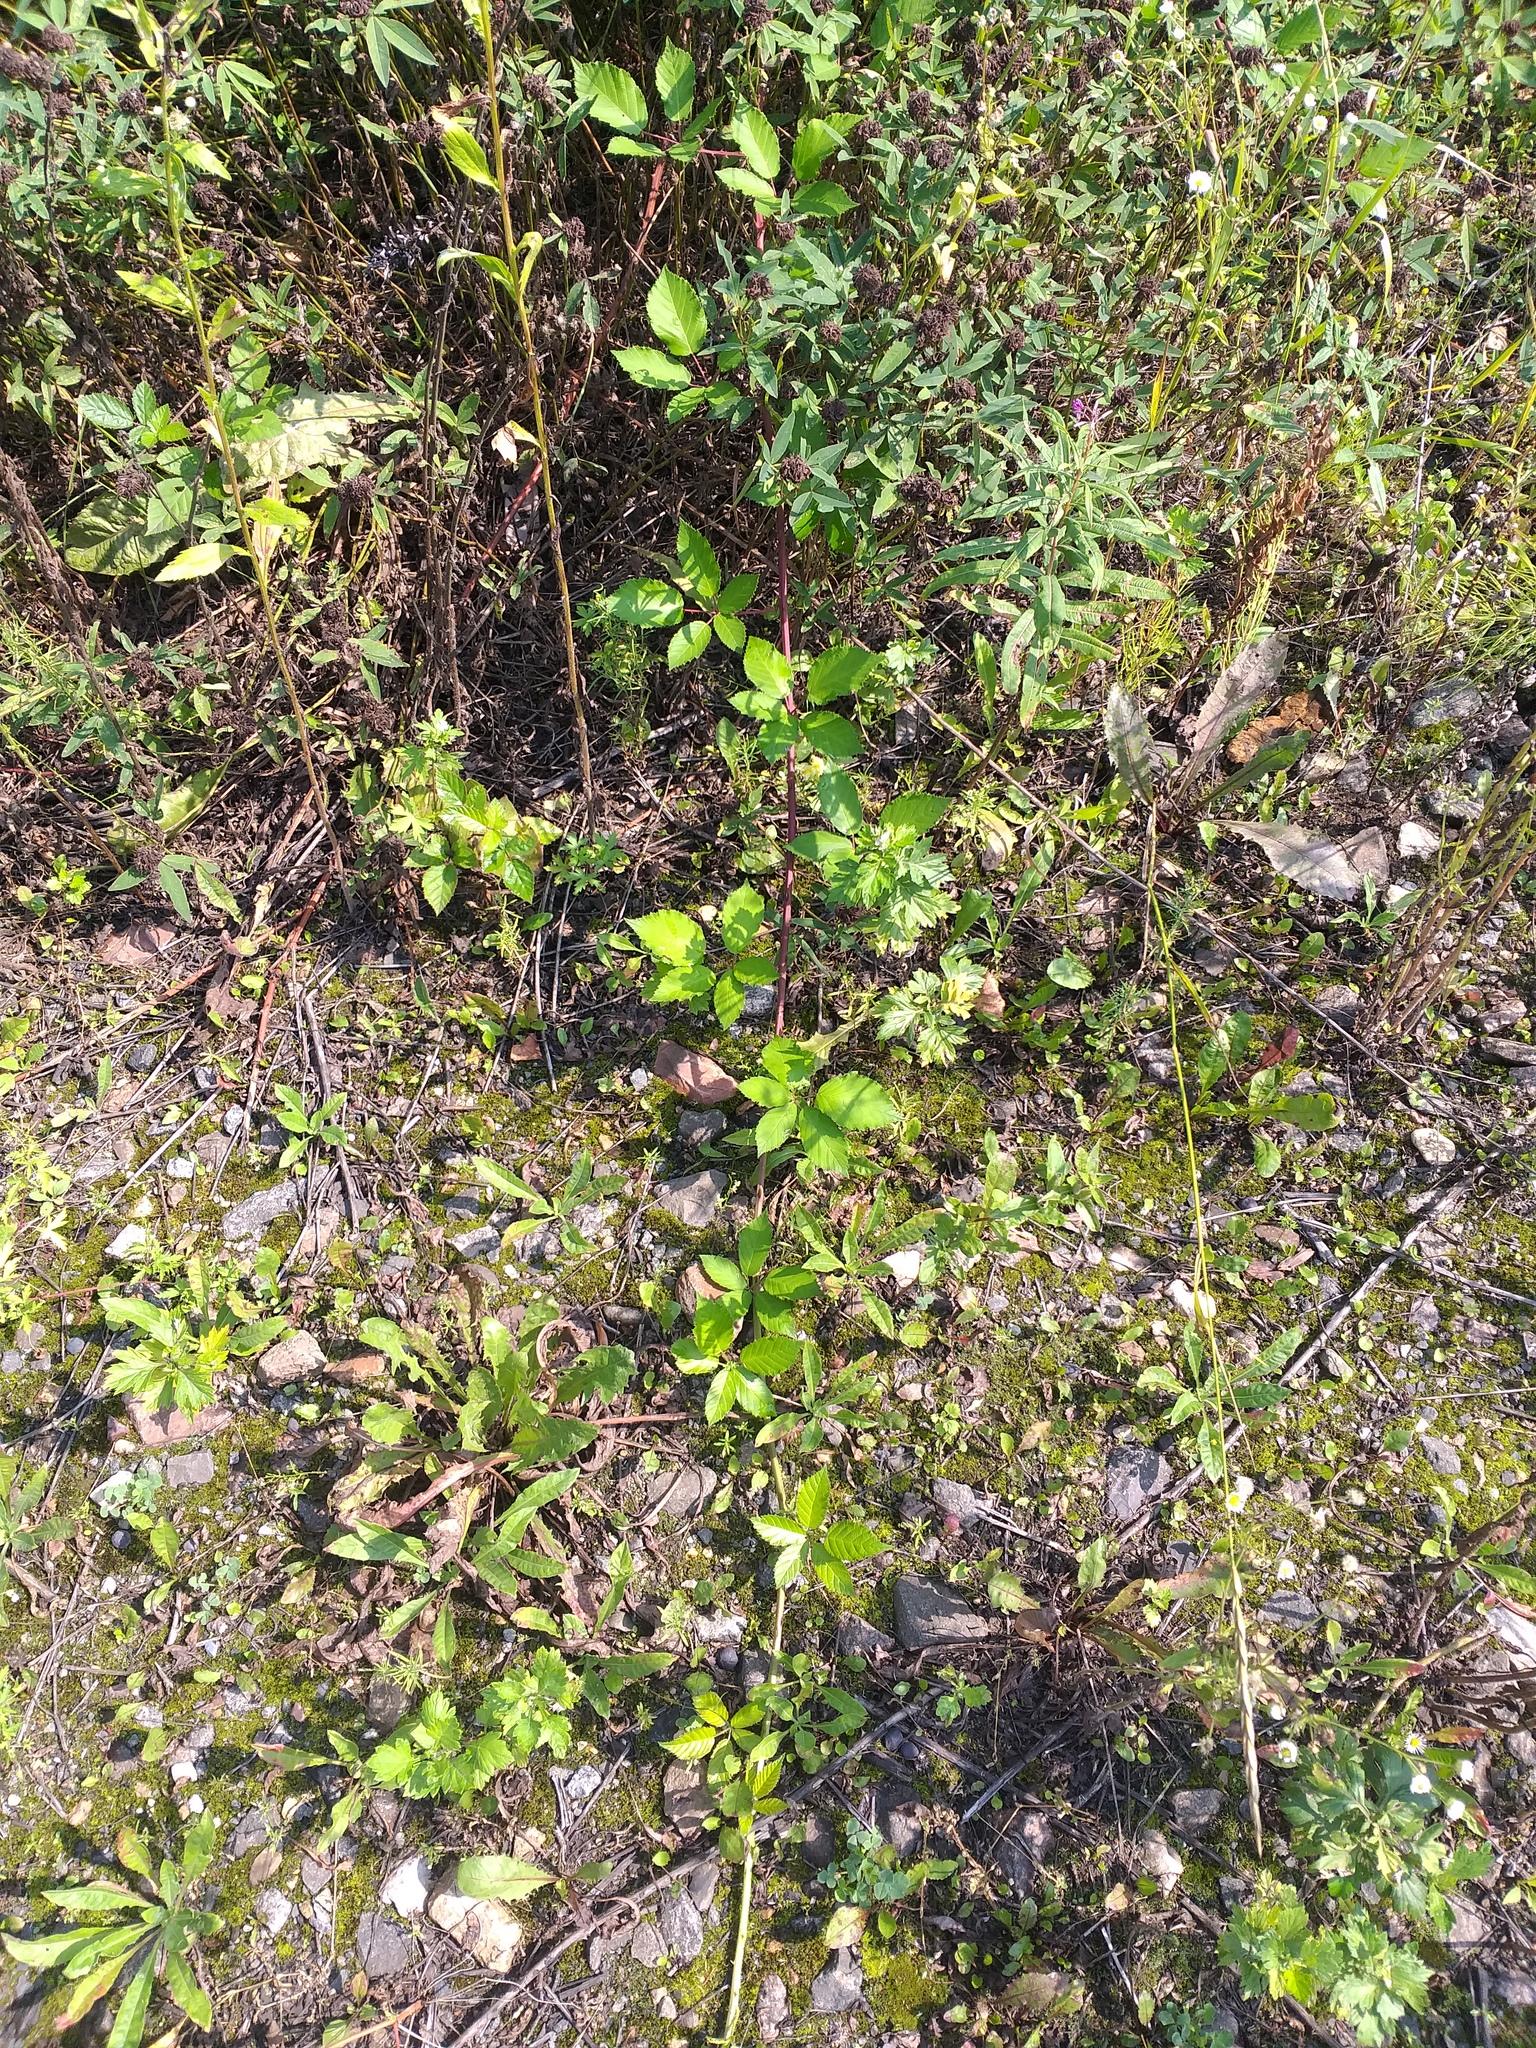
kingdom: Plantae
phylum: Tracheophyta
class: Magnoliopsida
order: Rosales
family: Rosaceae
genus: Rubus
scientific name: Rubus procerus
